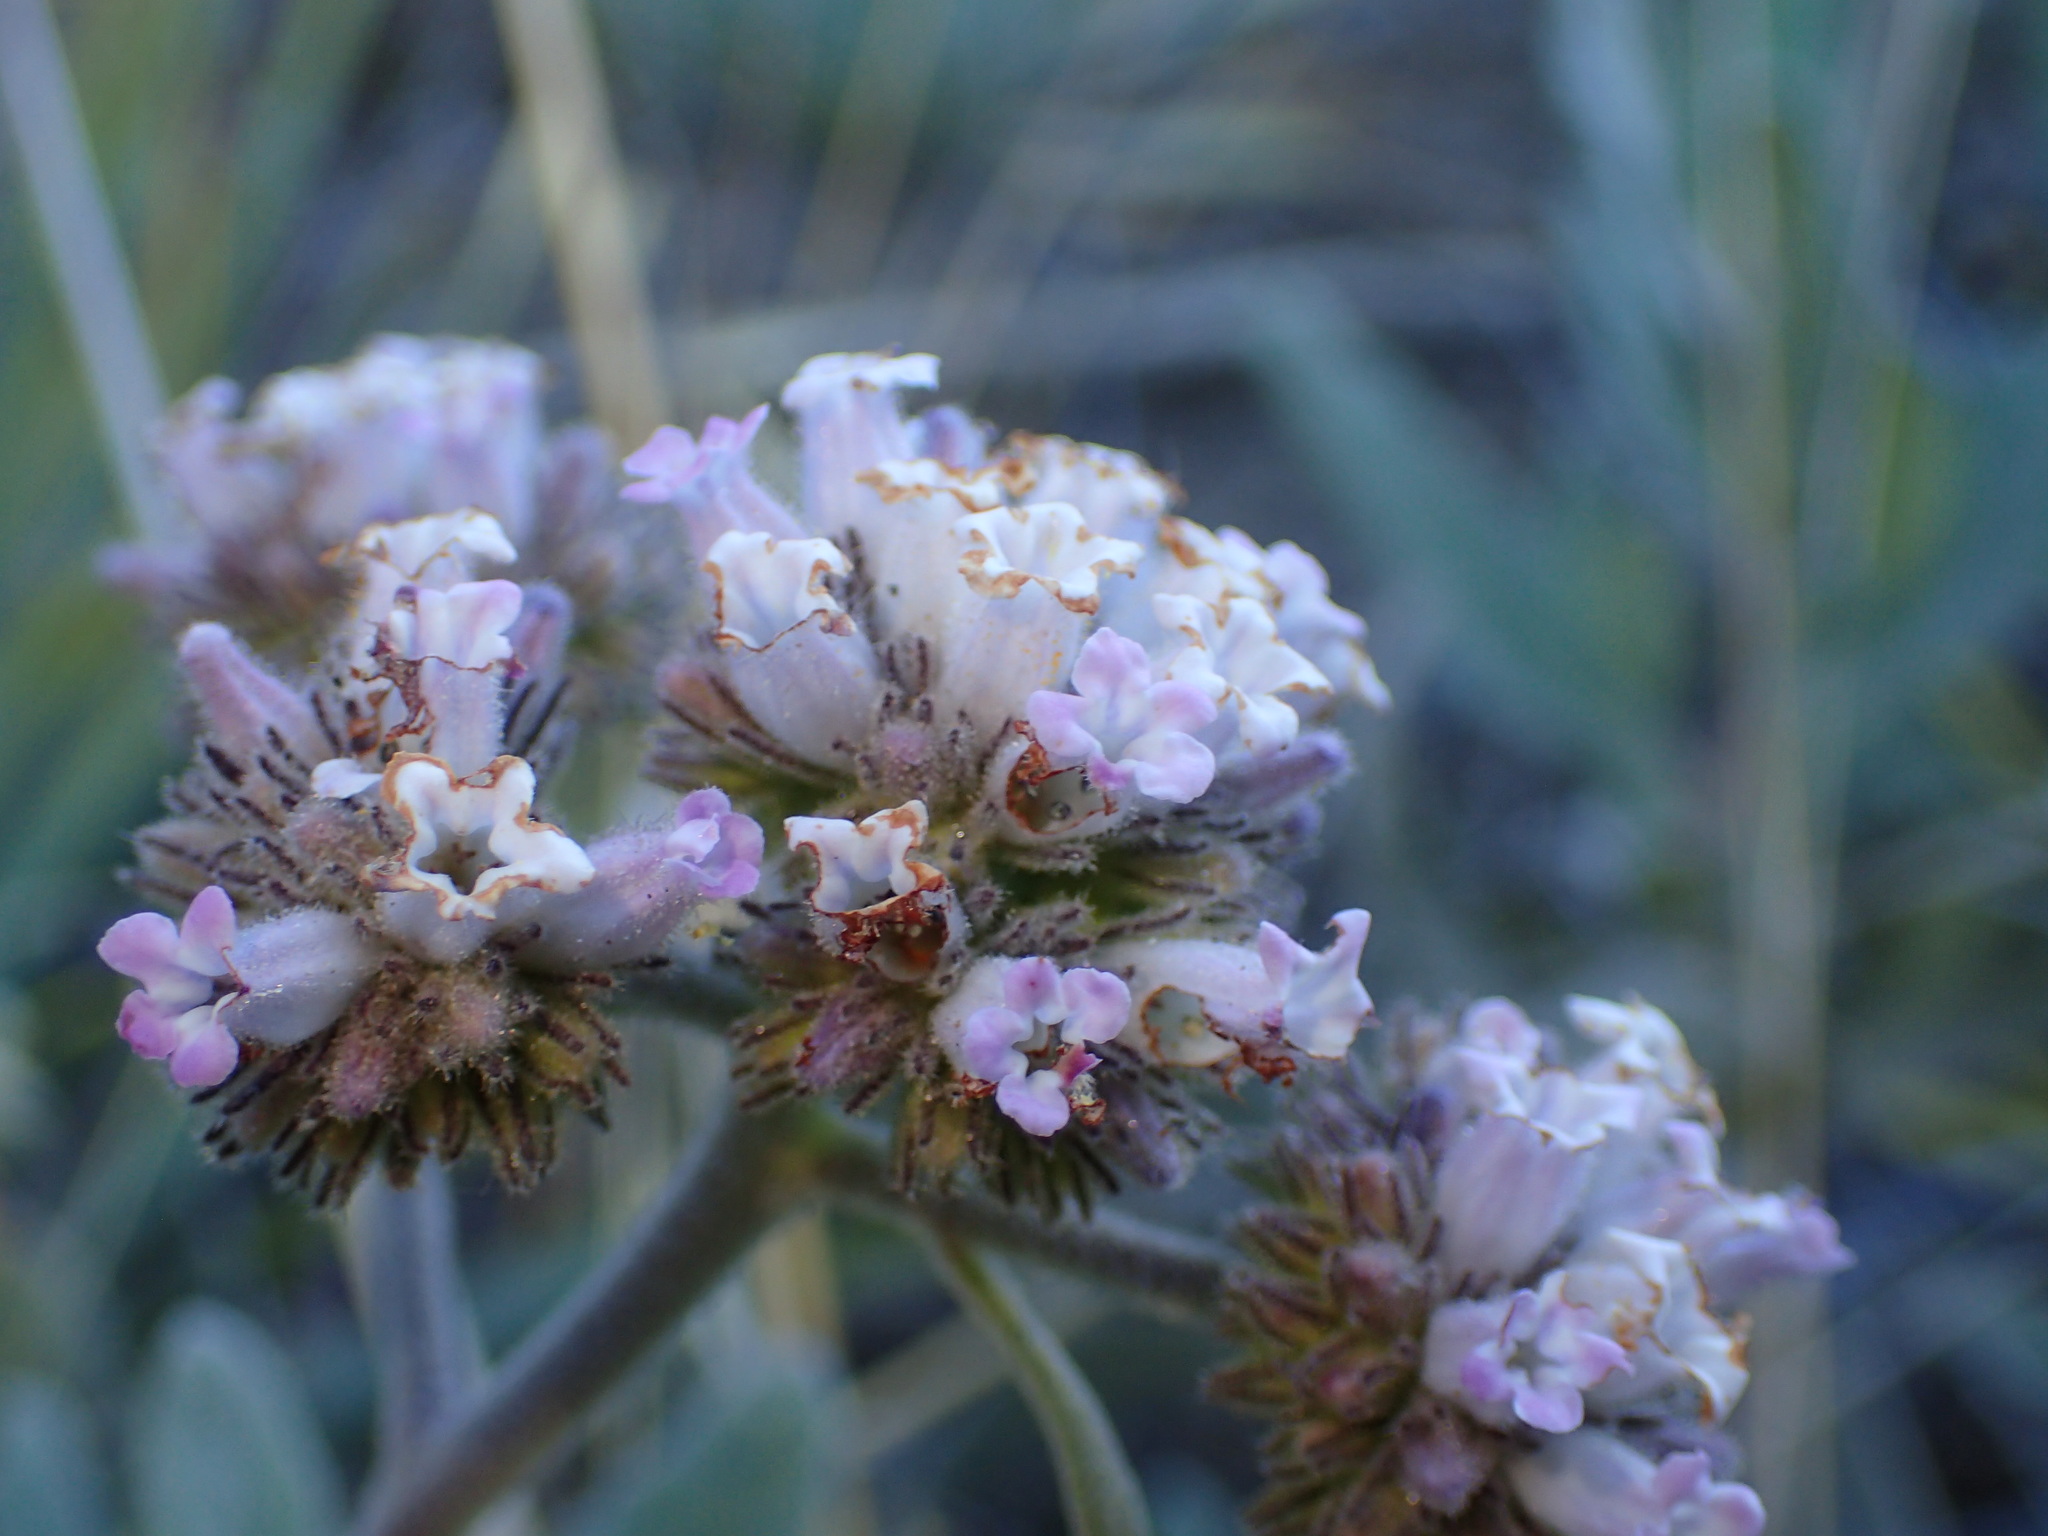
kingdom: Plantae
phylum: Tracheophyta
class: Magnoliopsida
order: Boraginales
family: Namaceae
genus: Eriodictyon
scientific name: Eriodictyon traskiae
